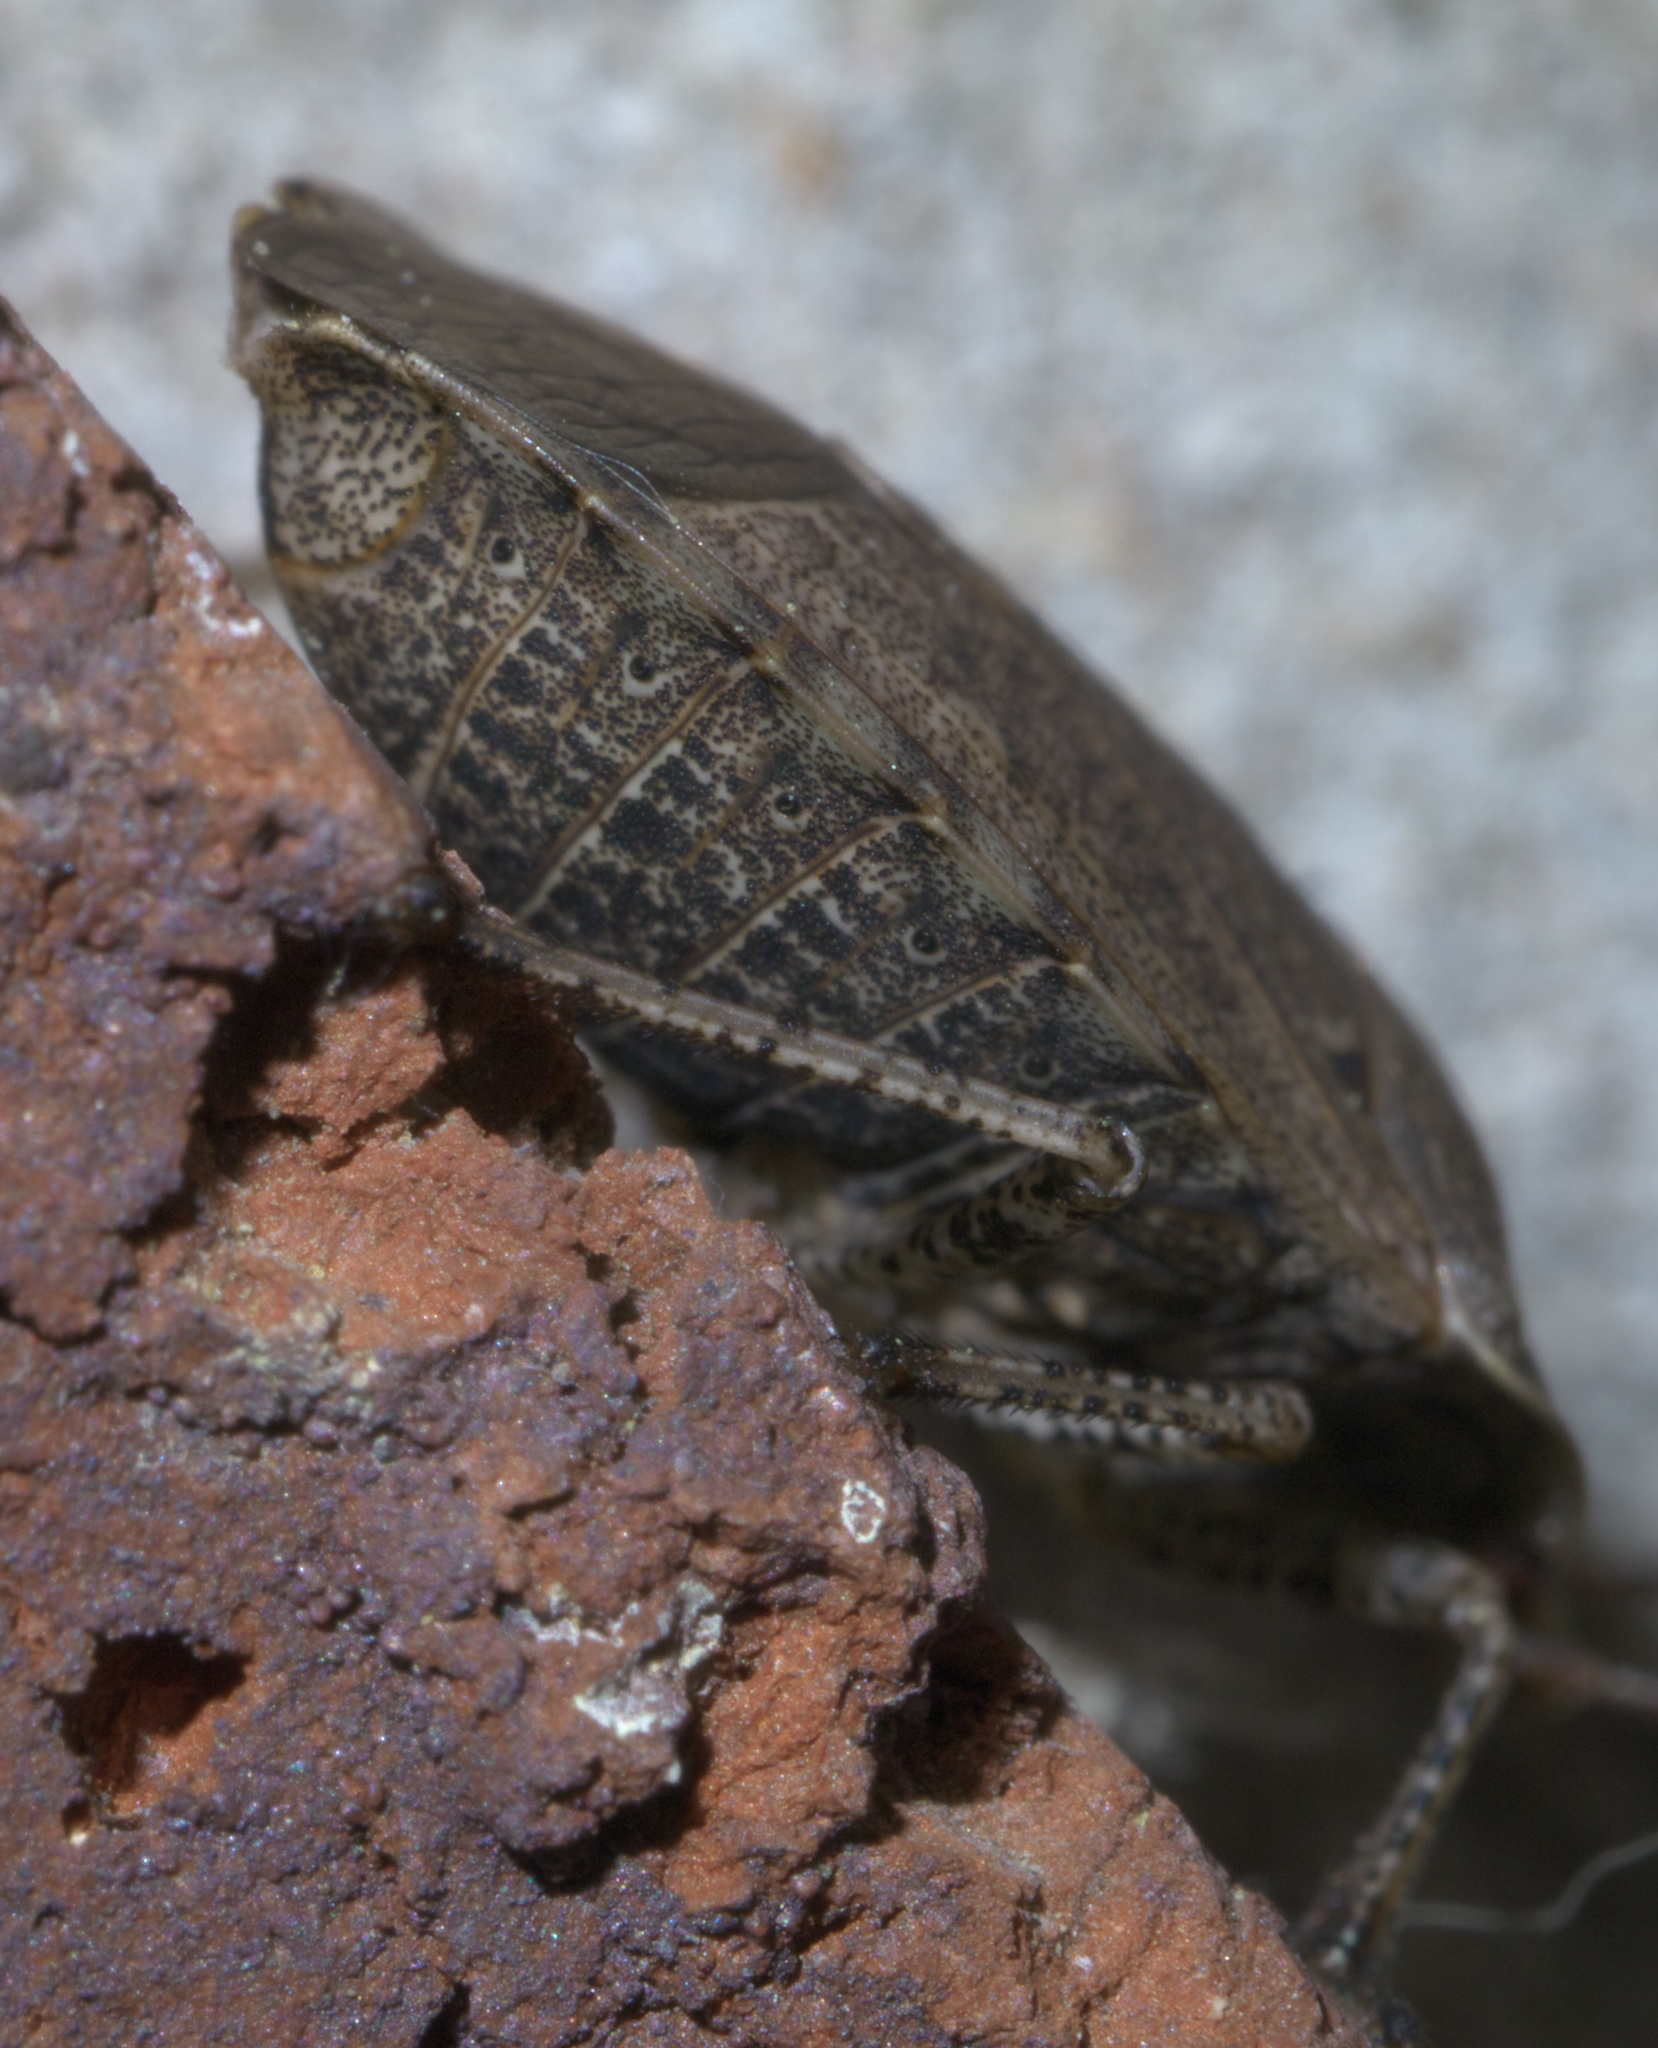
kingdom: Animalia
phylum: Arthropoda
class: Insecta
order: Hemiptera
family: Pentatomidae
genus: Menecles
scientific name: Menecles insertus
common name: Elf shoe stink bug
